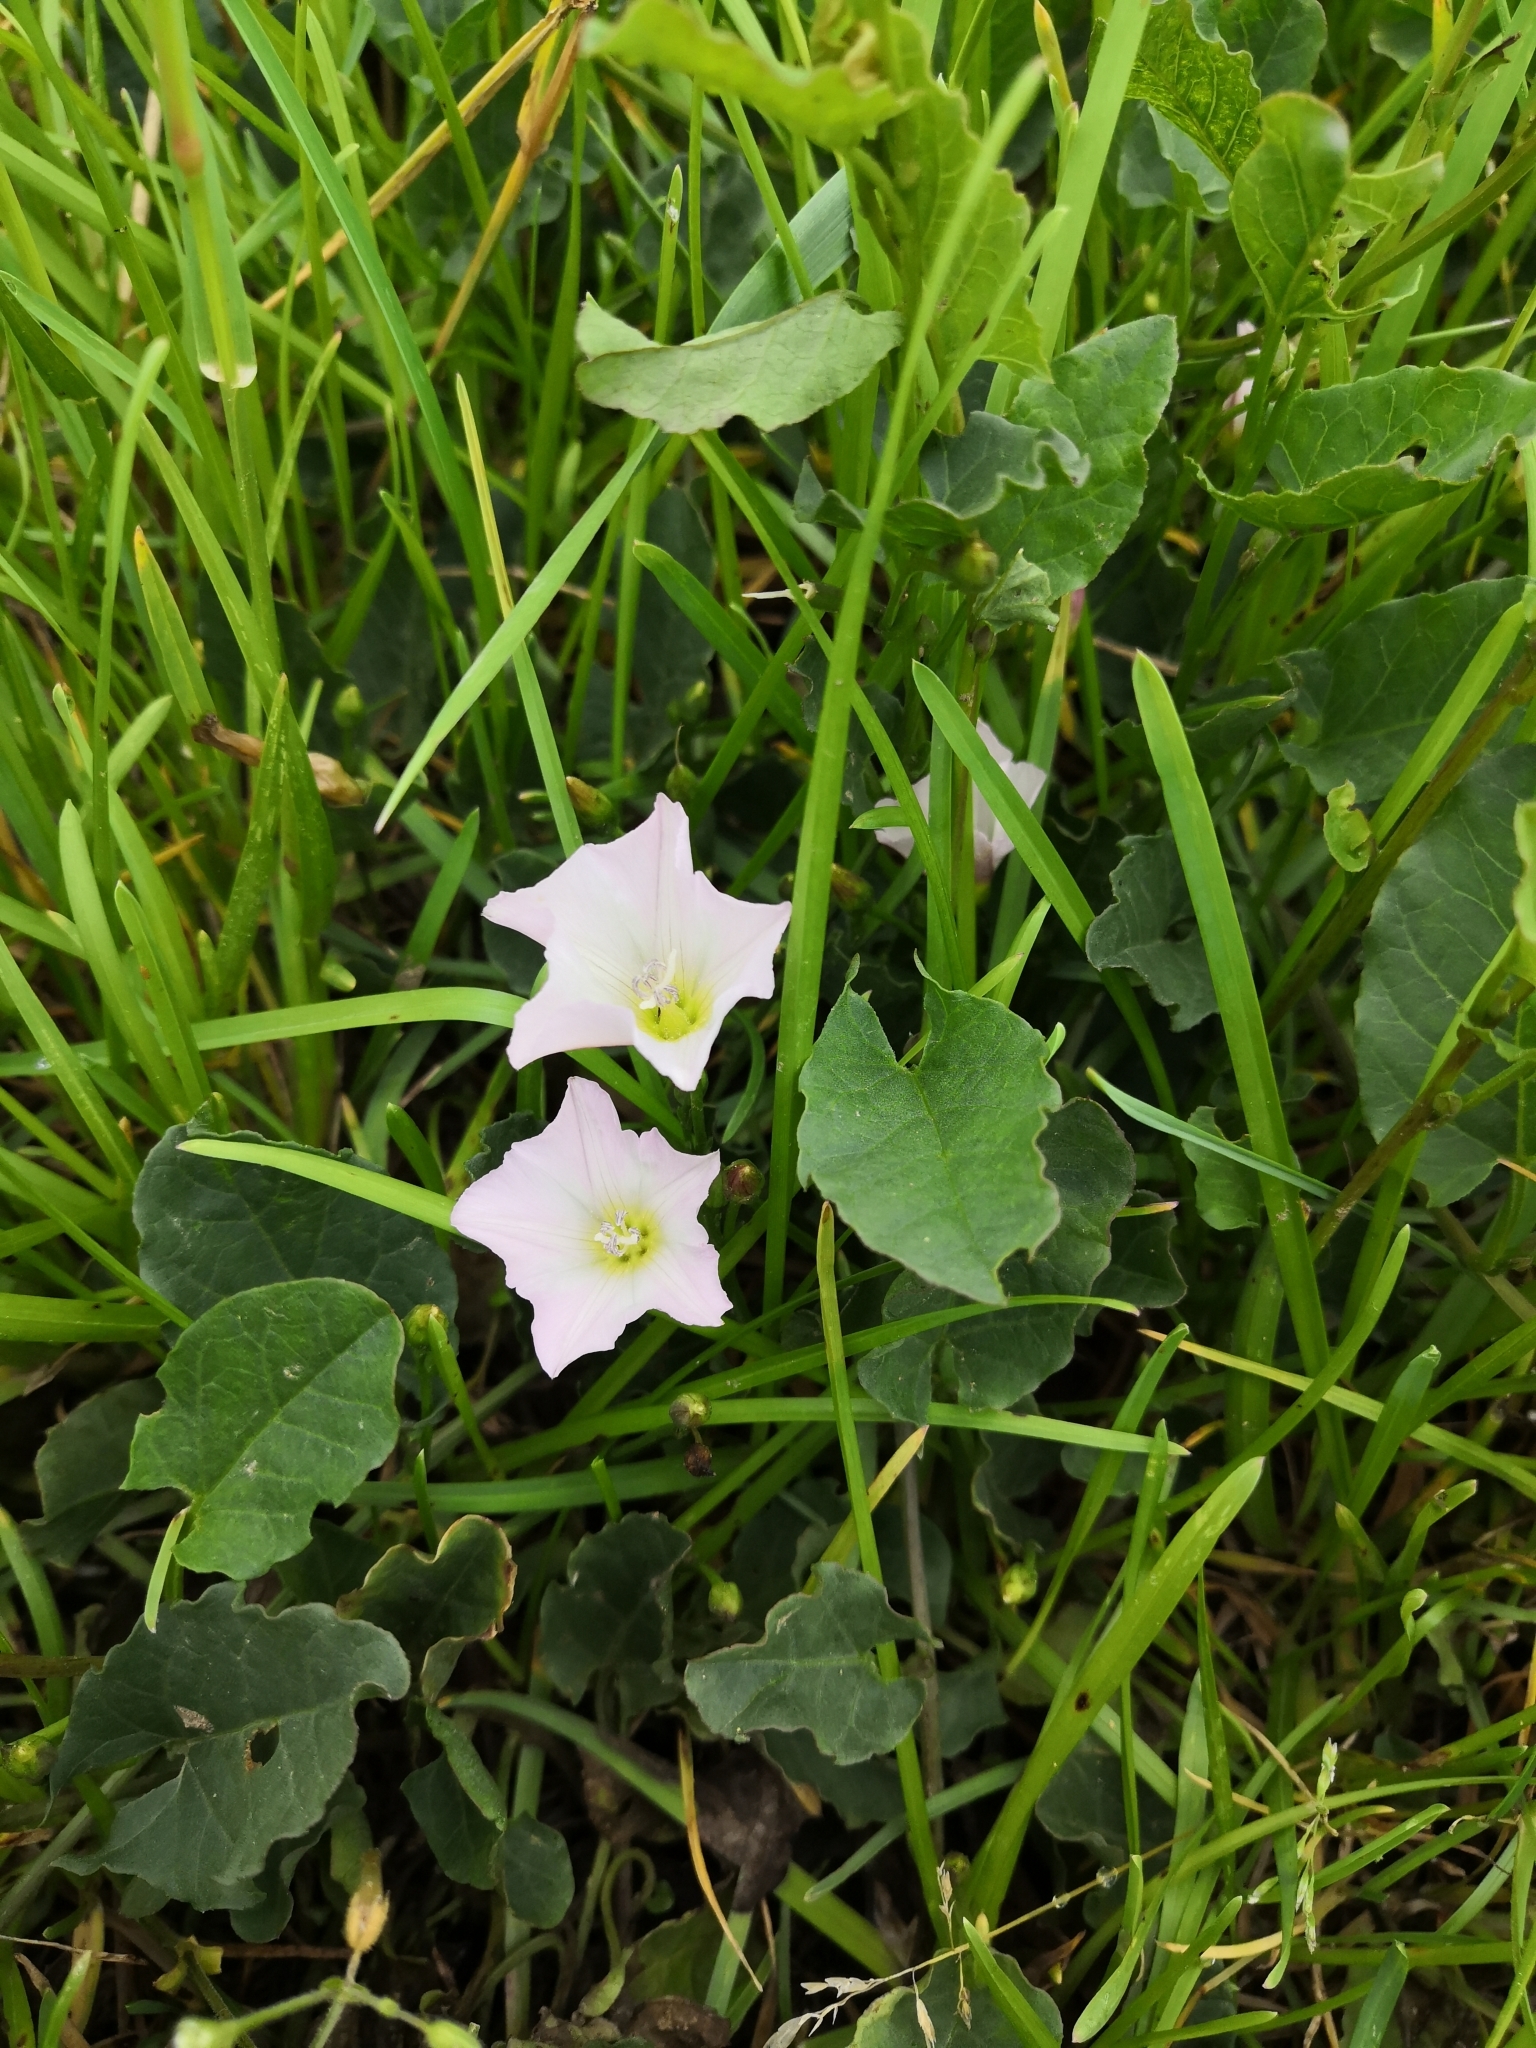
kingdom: Plantae
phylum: Tracheophyta
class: Magnoliopsida
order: Solanales
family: Convolvulaceae
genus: Convolvulus
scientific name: Convolvulus arvensis
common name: Field bindweed
